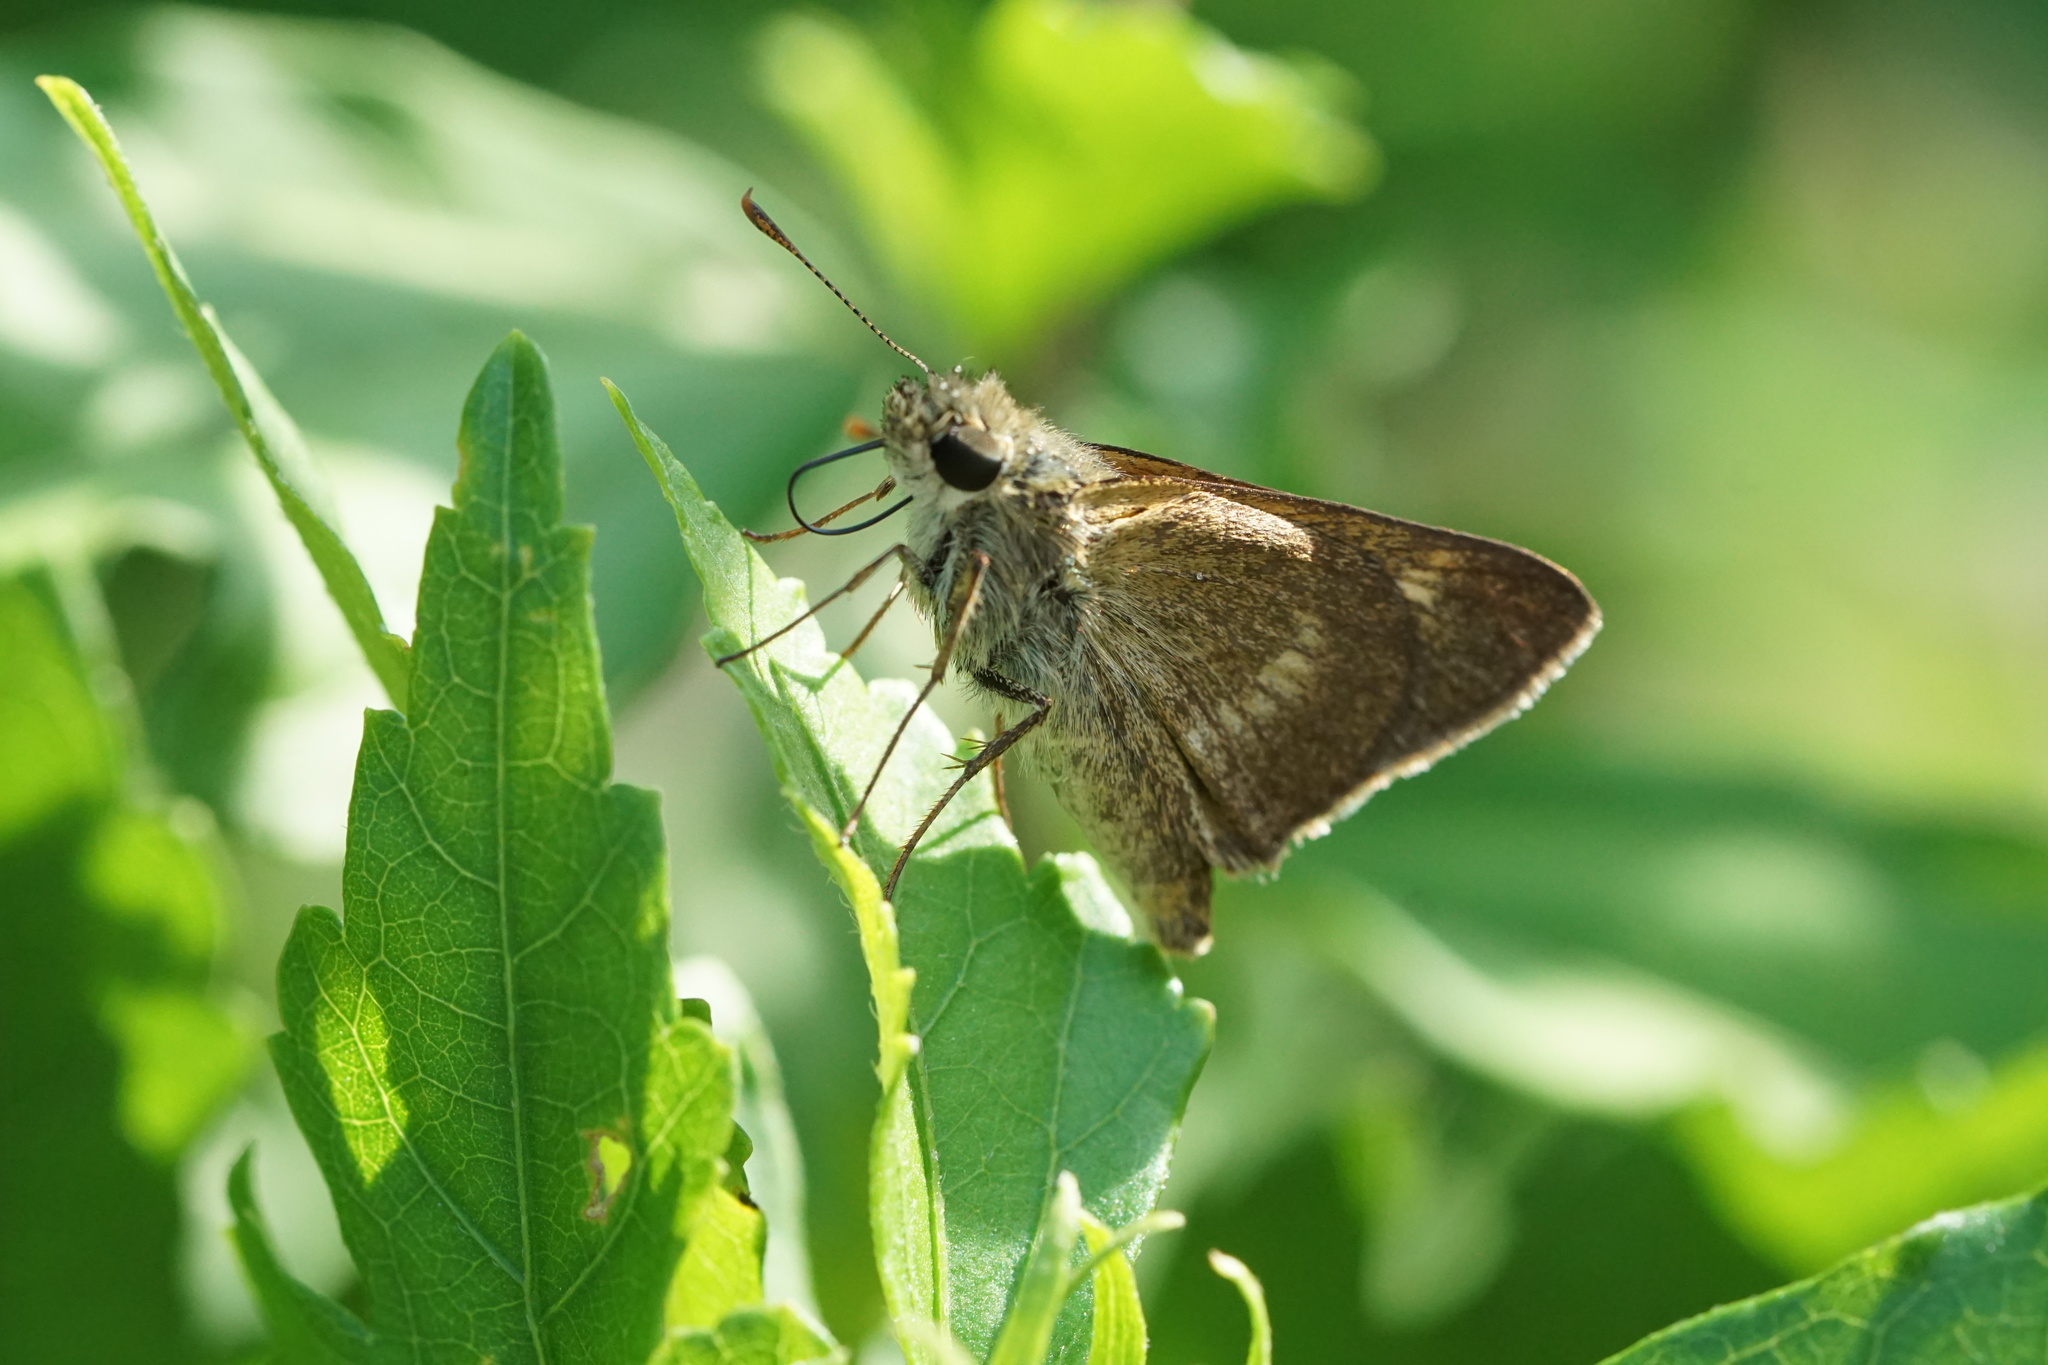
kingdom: Animalia
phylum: Arthropoda
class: Insecta
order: Lepidoptera
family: Hesperiidae
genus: Polites
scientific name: Polites egeremet
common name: Northern broken-dash
